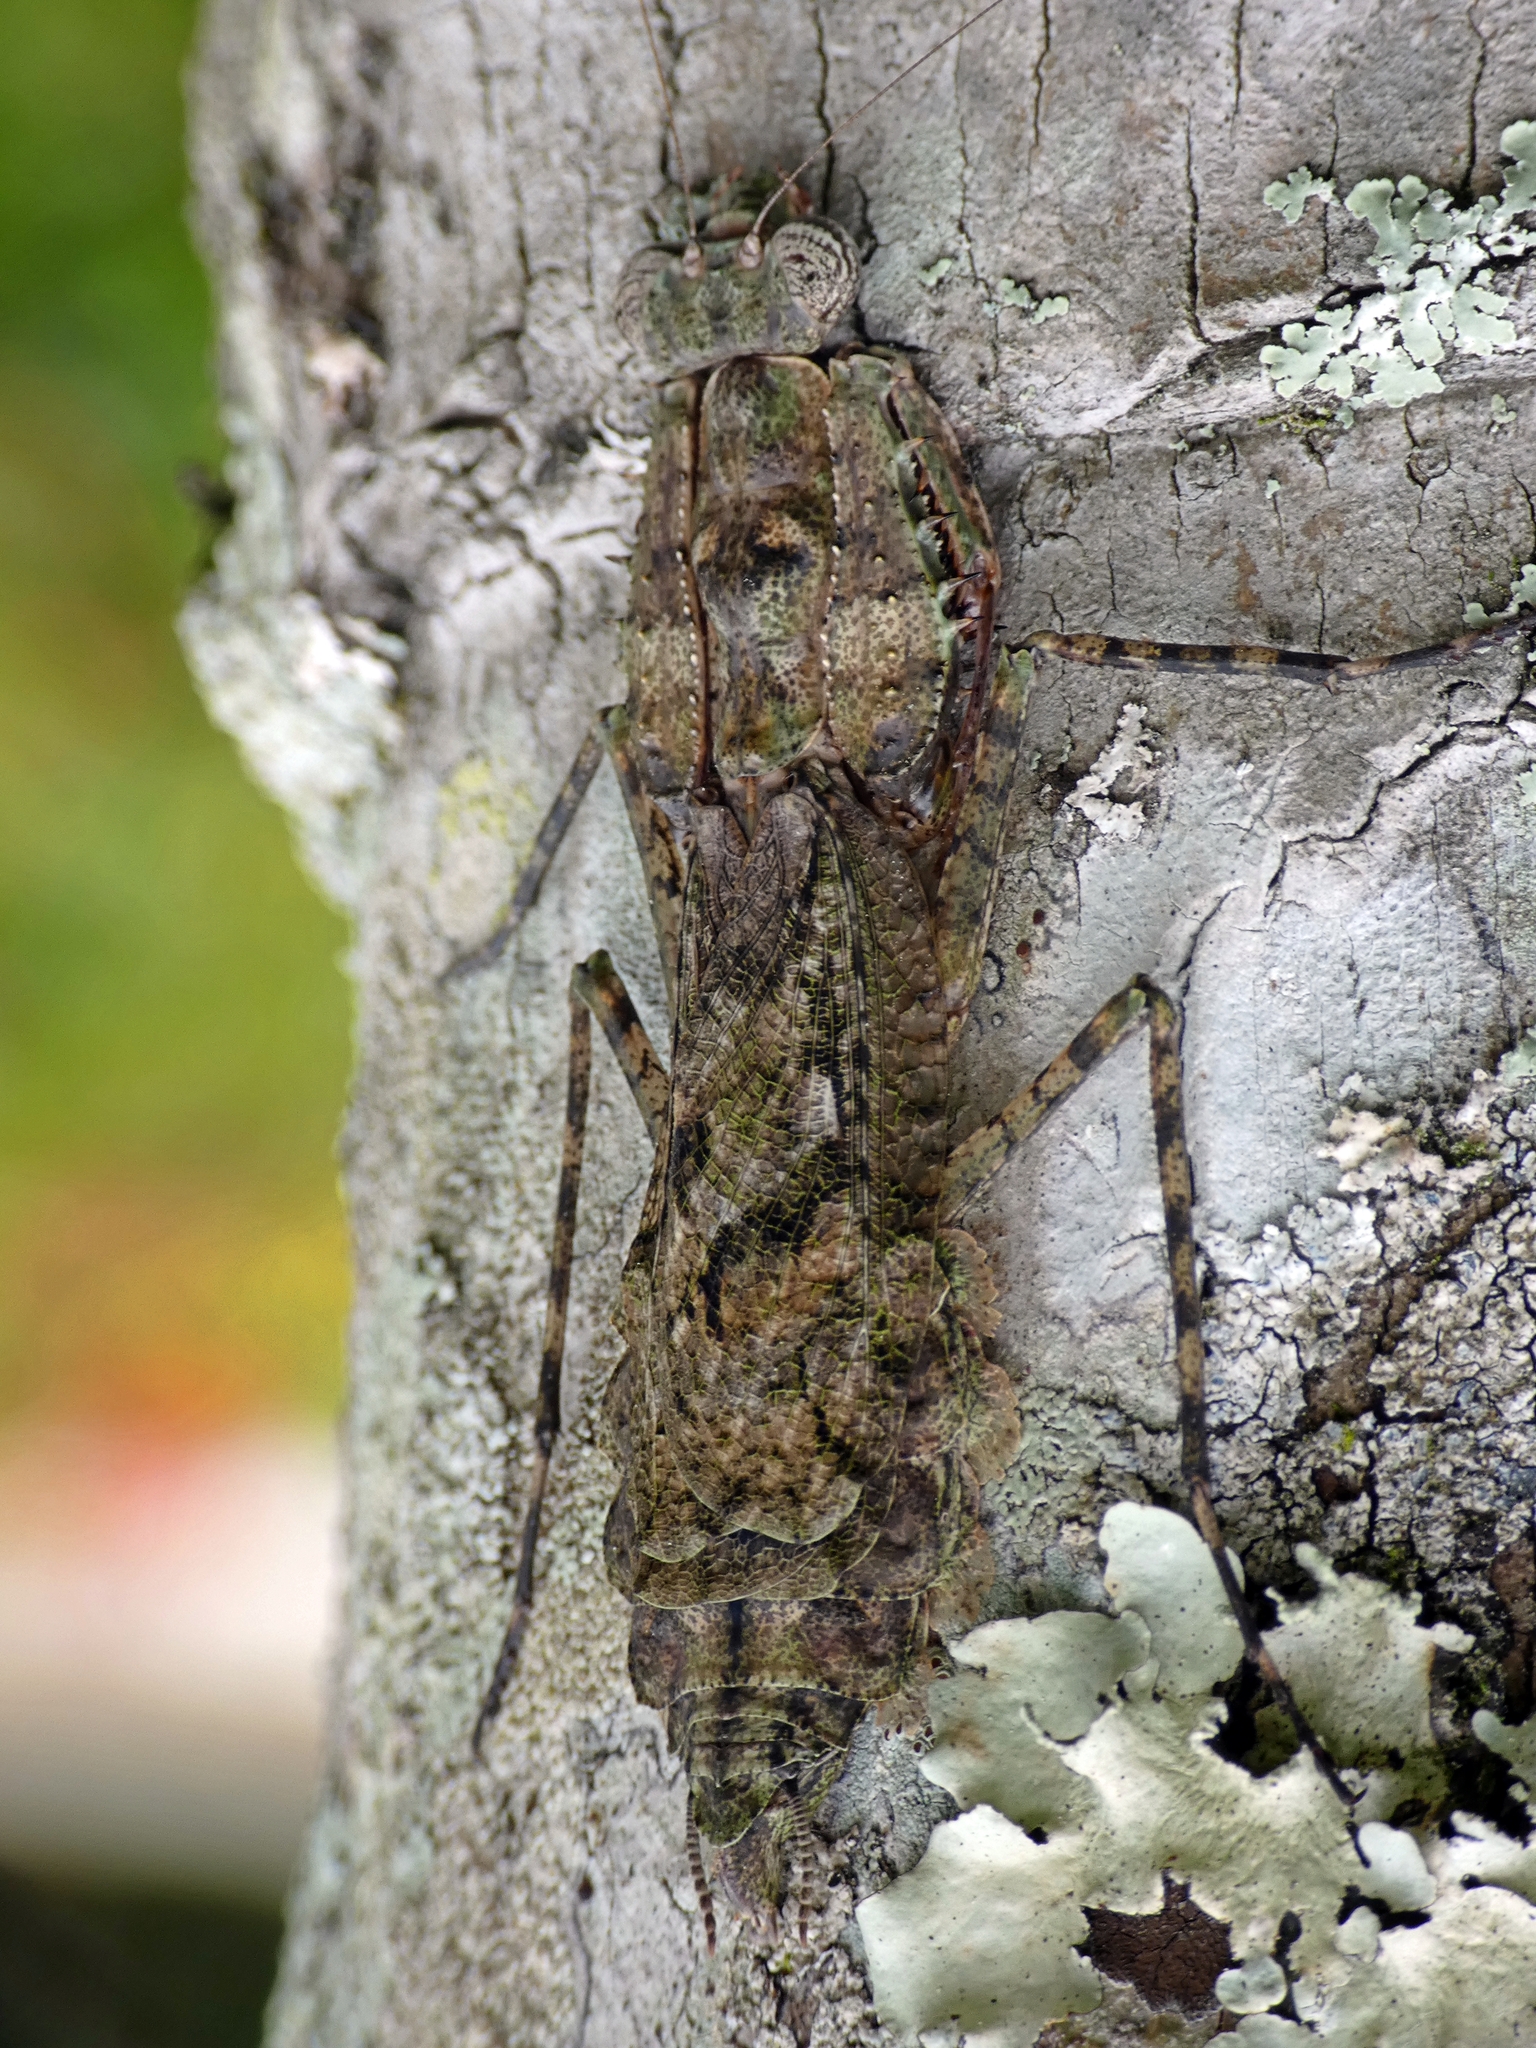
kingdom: Animalia
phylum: Arthropoda
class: Insecta
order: Mantodea
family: Epaphroditidae
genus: Gonatista
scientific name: Gonatista grisea
